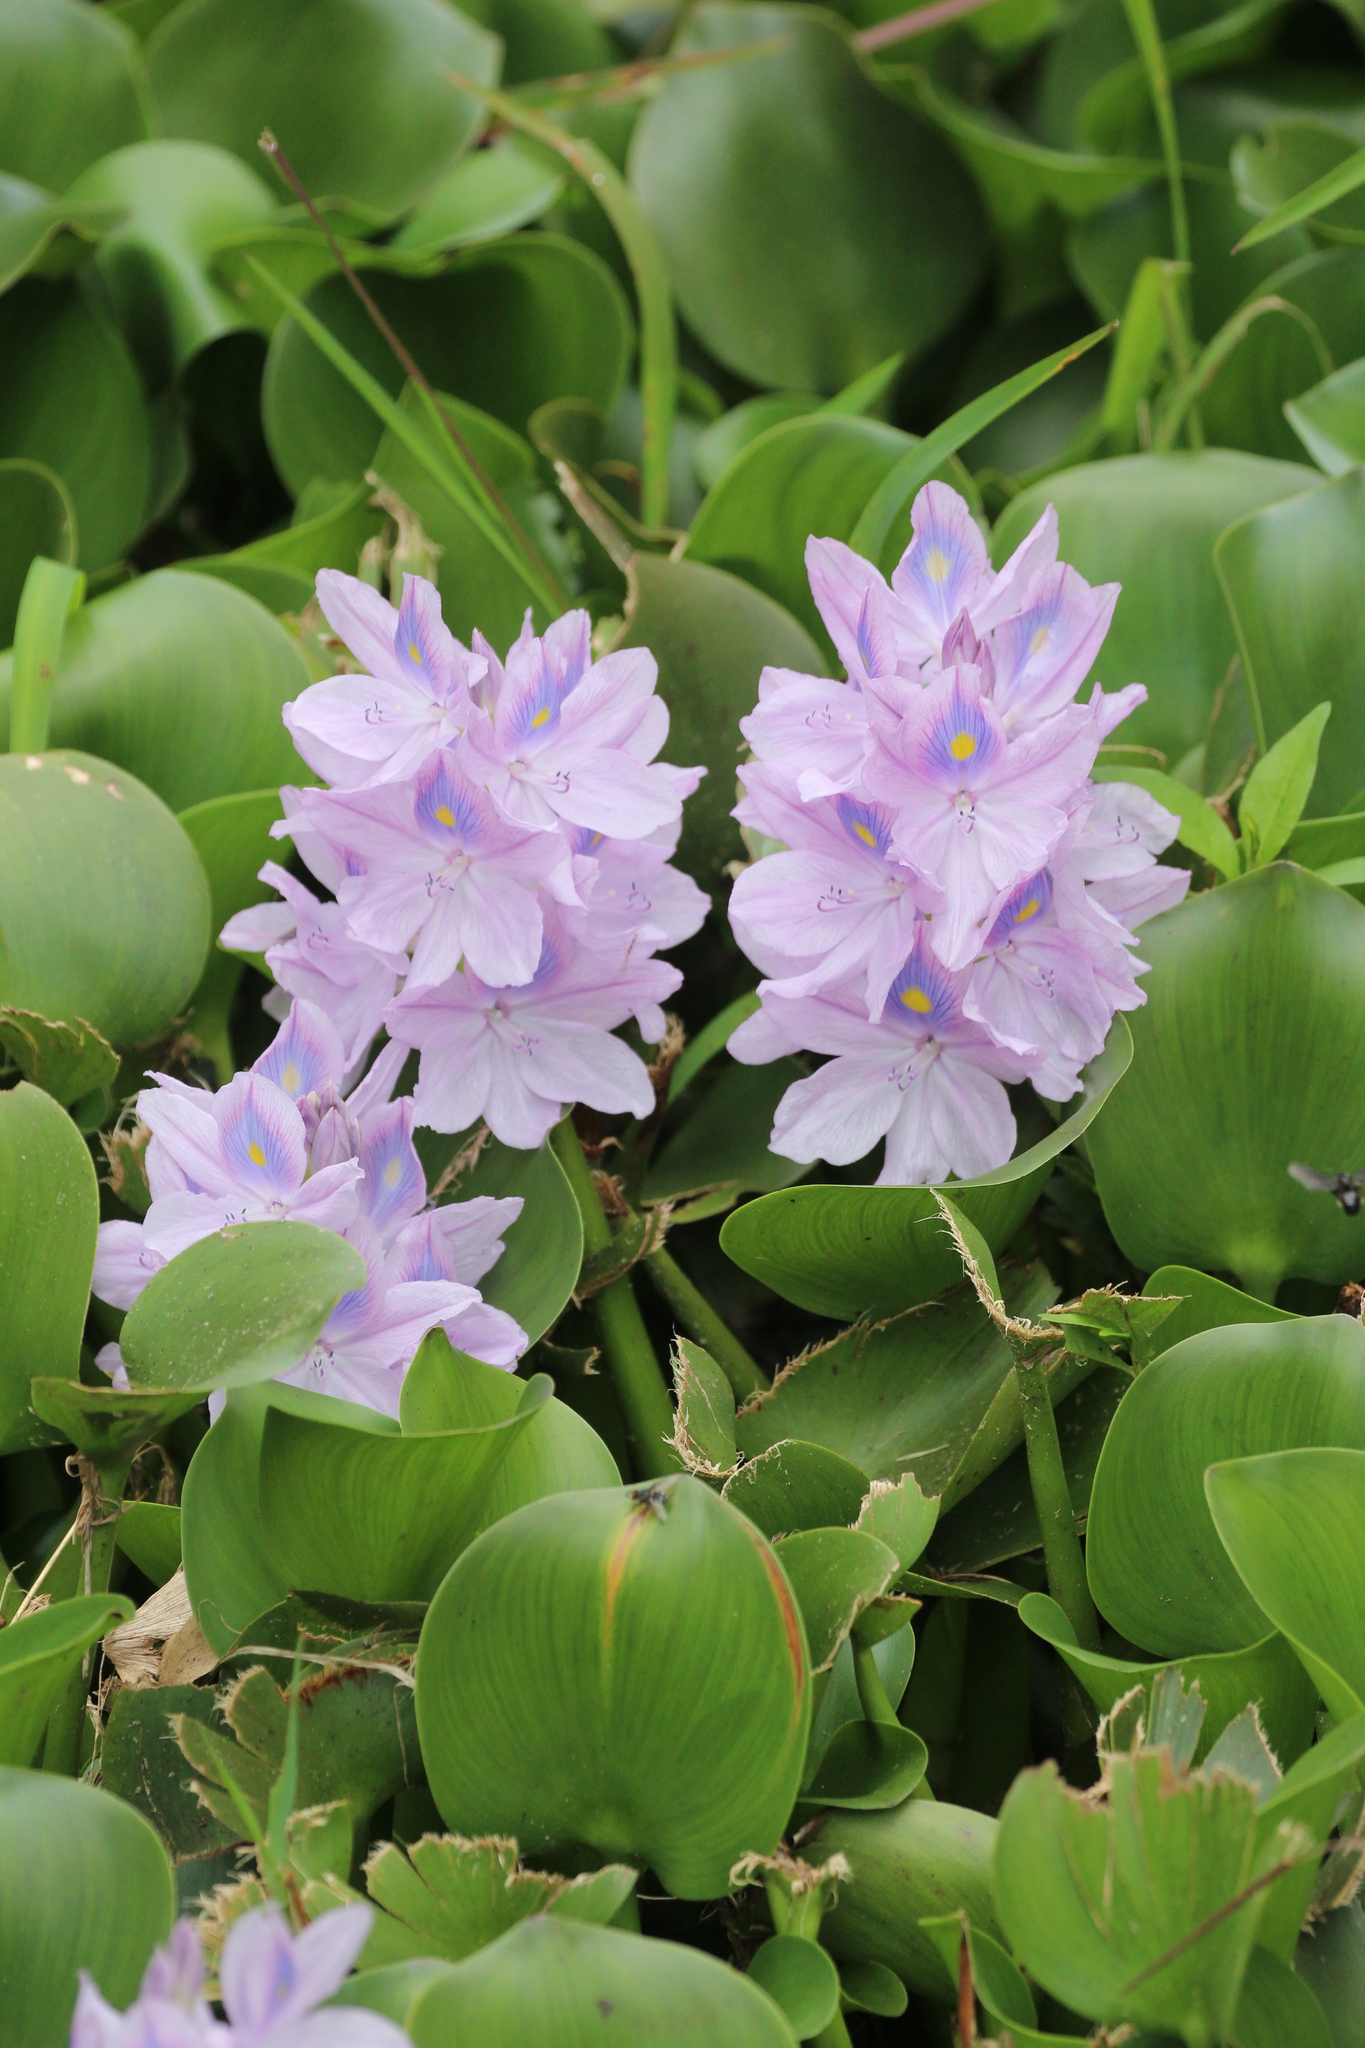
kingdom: Plantae
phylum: Tracheophyta
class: Liliopsida
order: Commelinales
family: Pontederiaceae
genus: Pontederia
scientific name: Pontederia crassipes
